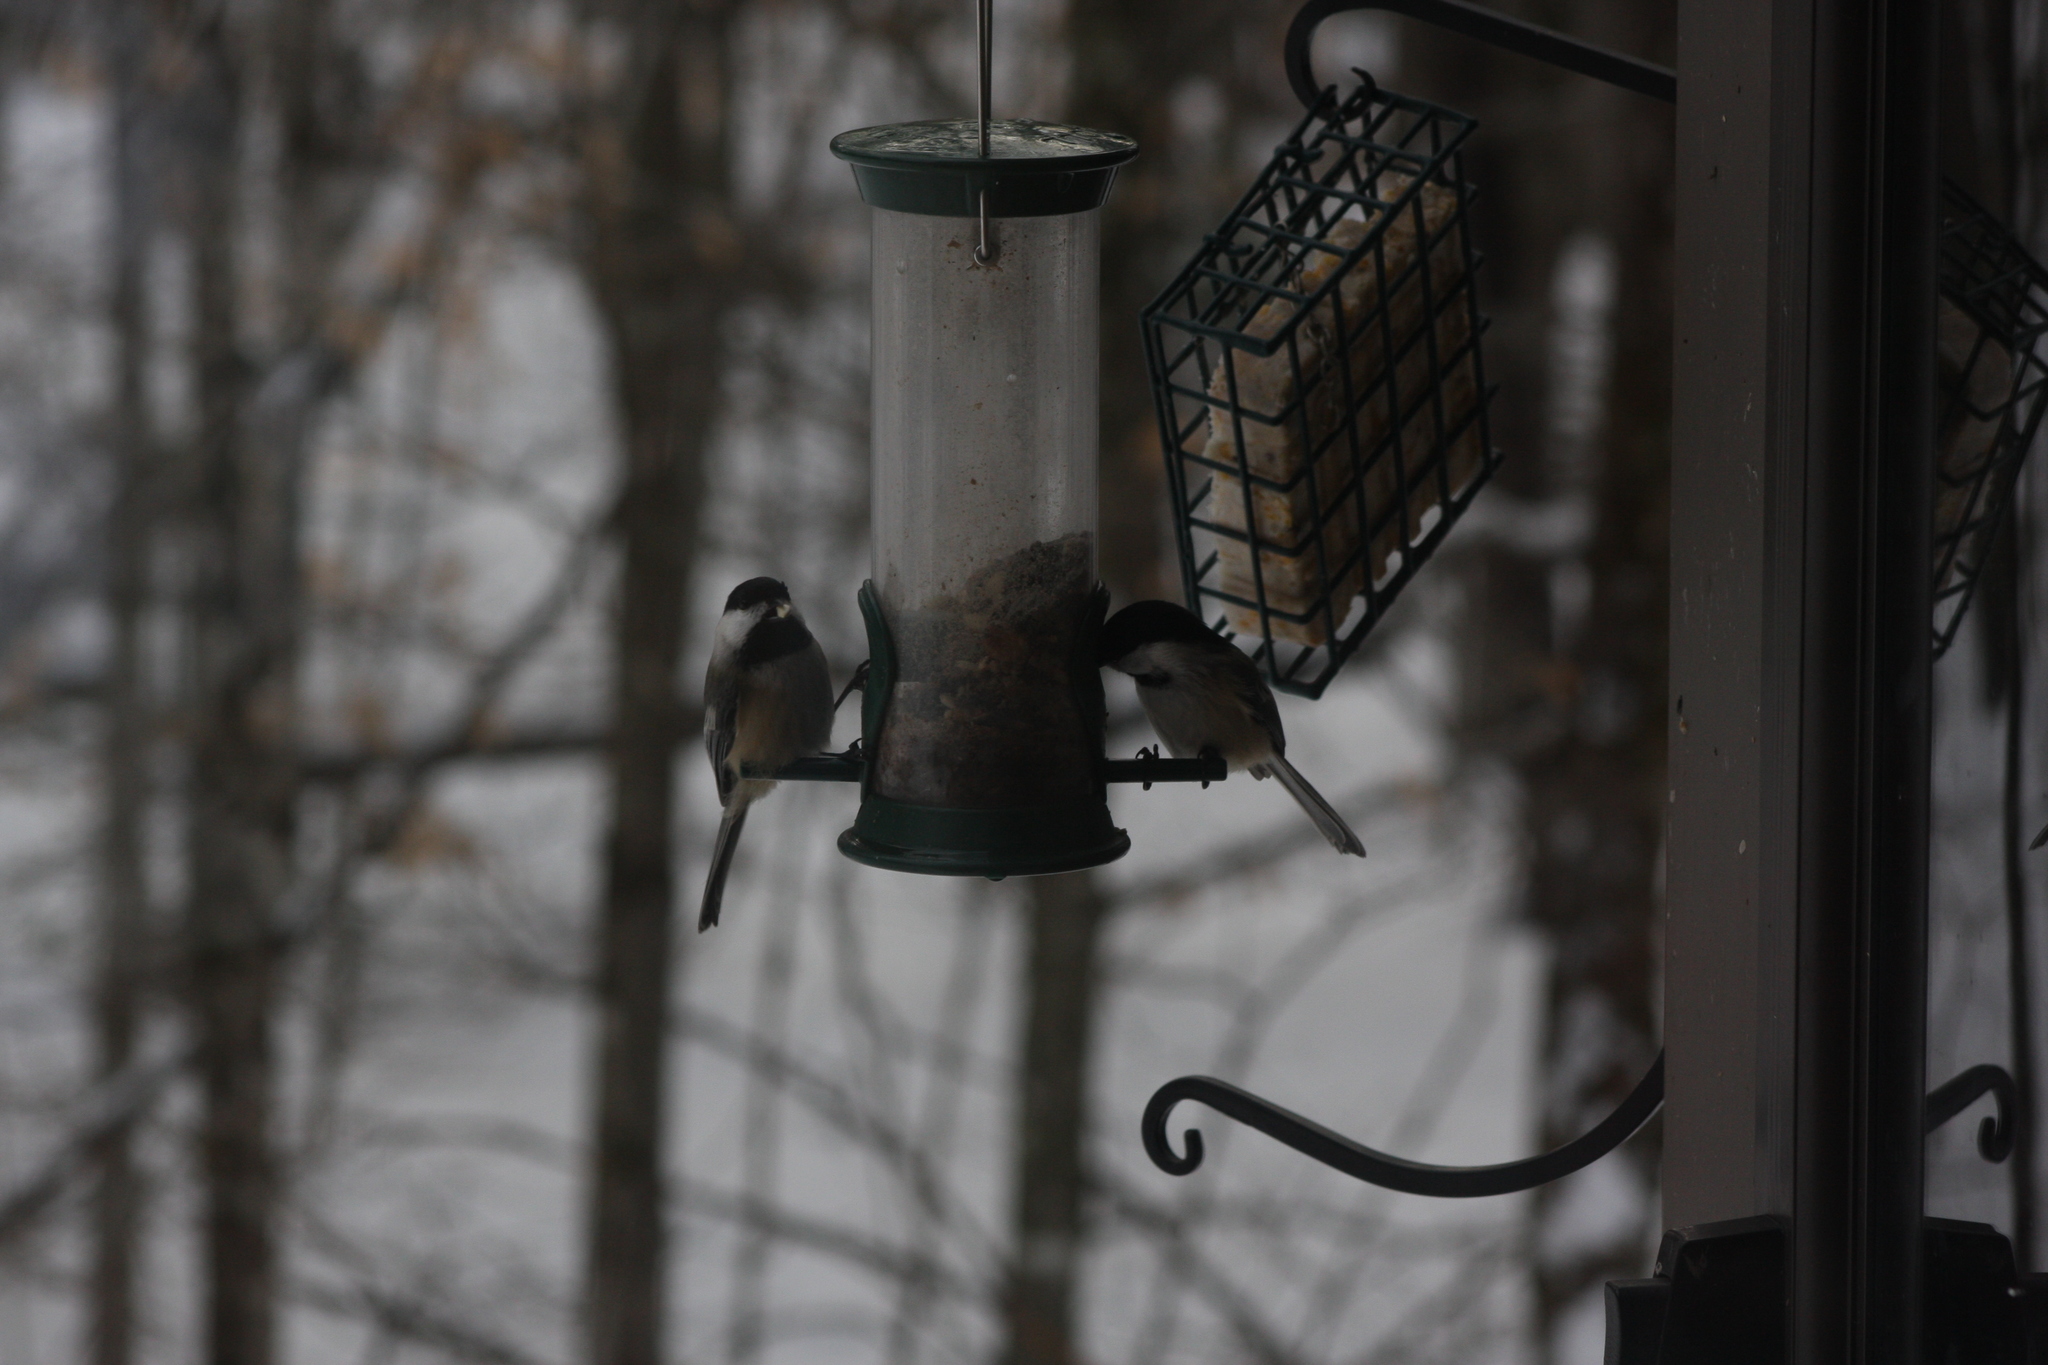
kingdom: Animalia
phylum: Chordata
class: Aves
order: Passeriformes
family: Paridae
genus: Poecile
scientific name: Poecile atricapillus
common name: Black-capped chickadee
